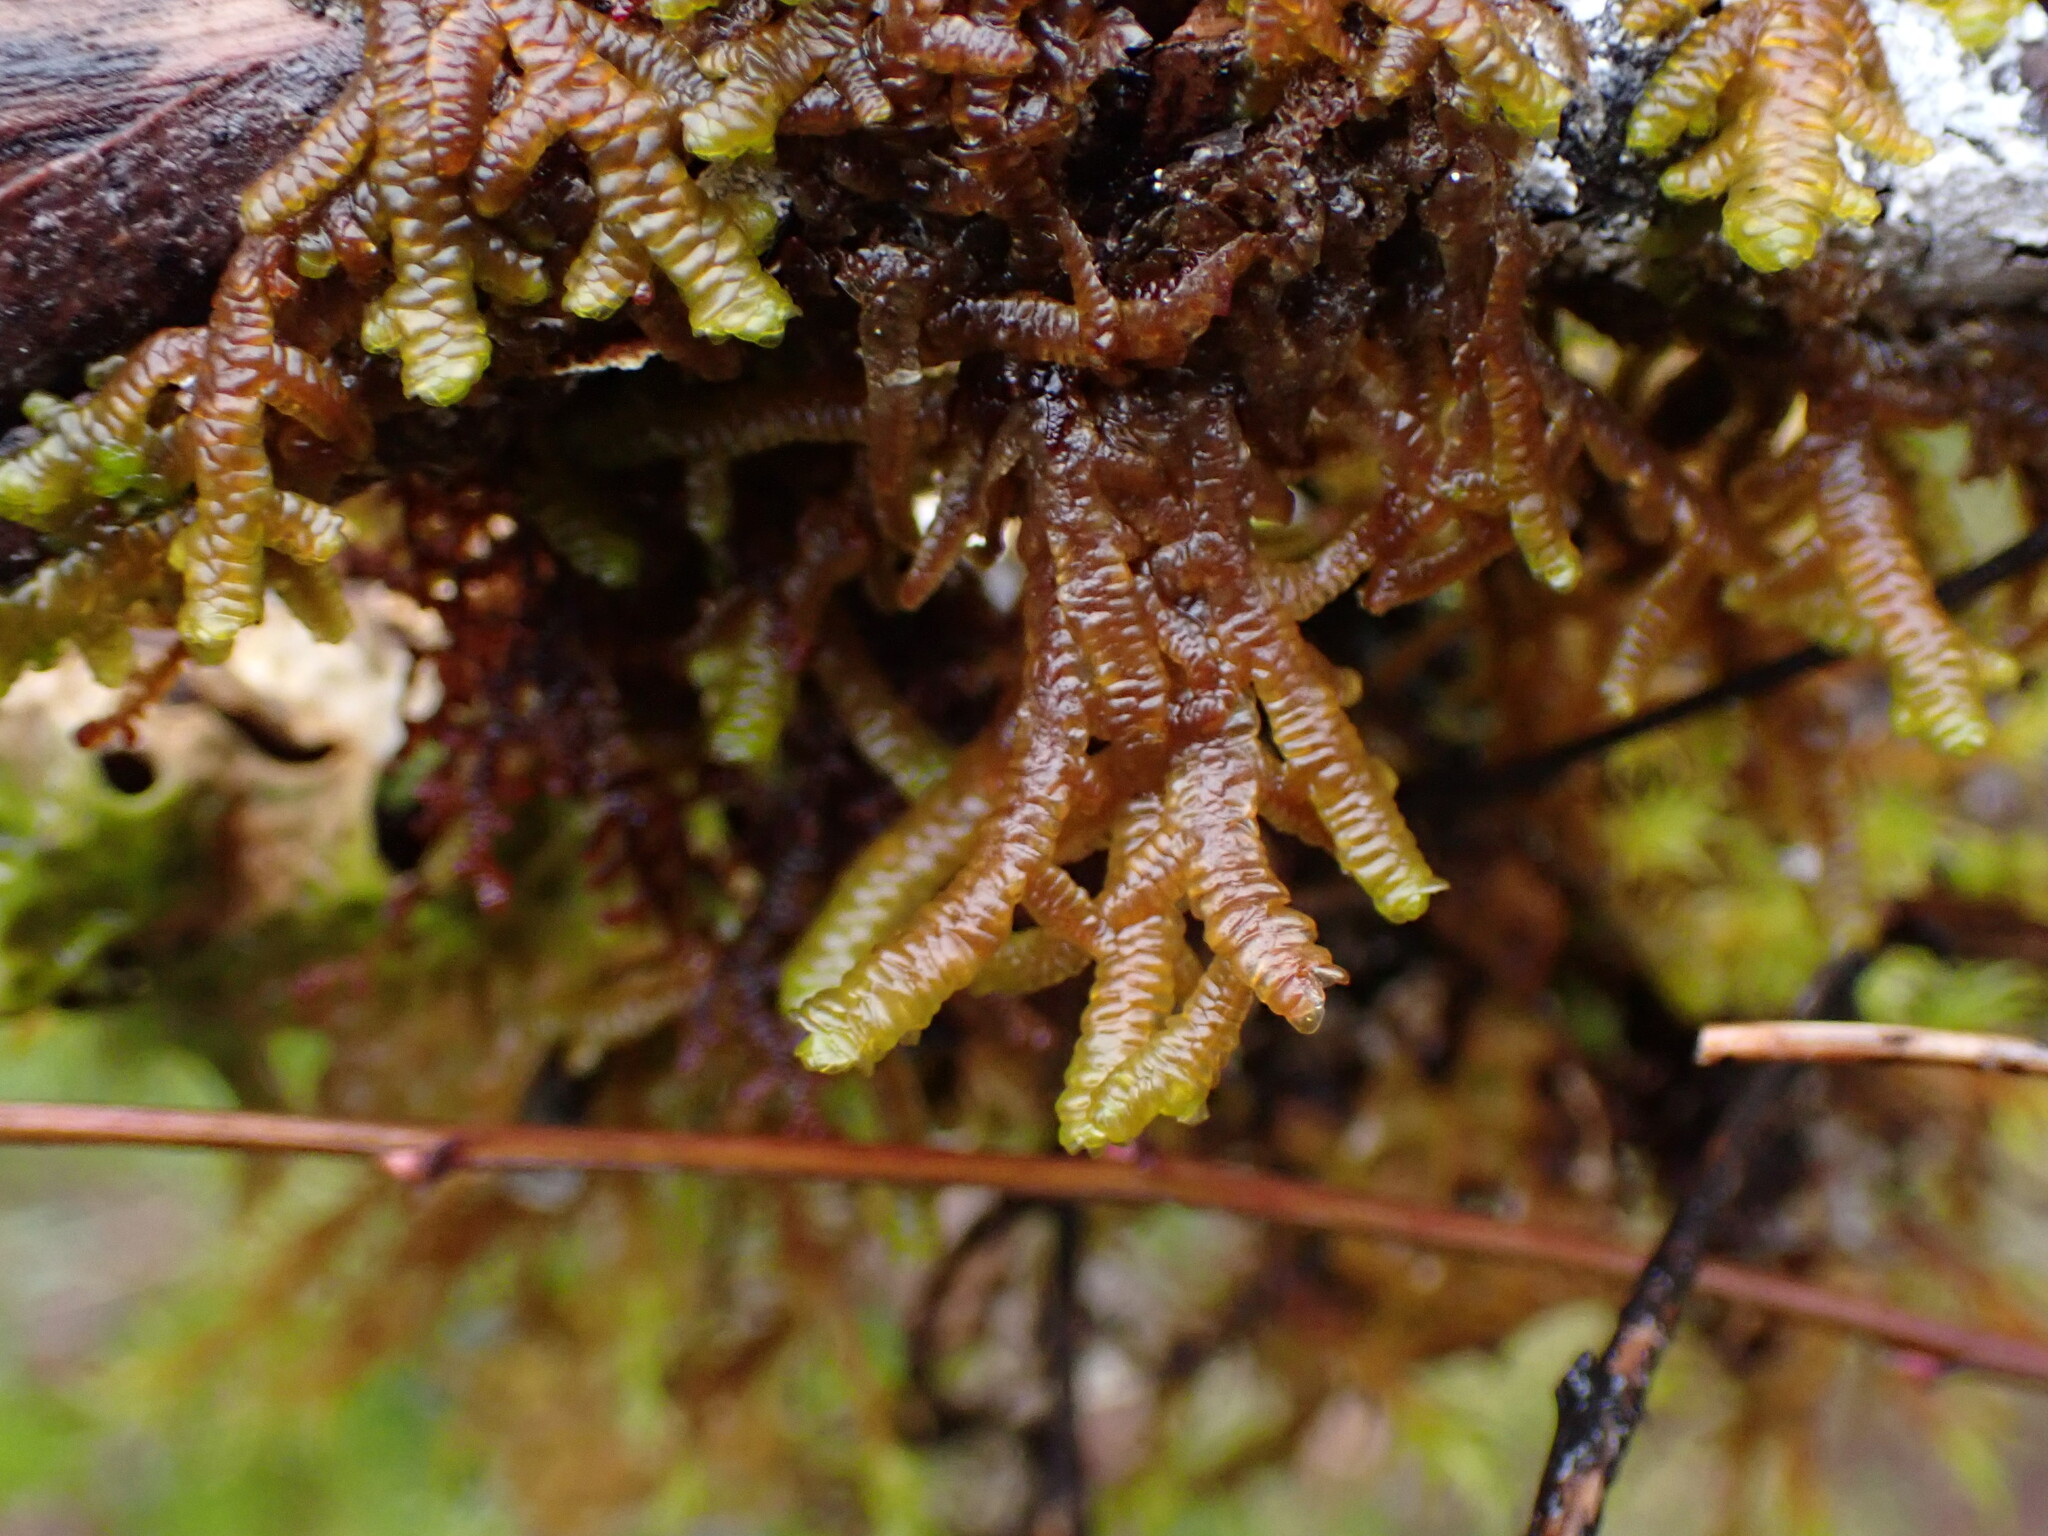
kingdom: Plantae
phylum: Marchantiophyta
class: Jungermanniopsida
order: Porellales
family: Porellaceae
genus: Porella
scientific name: Porella navicularis
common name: Tree ruffle liverwort
